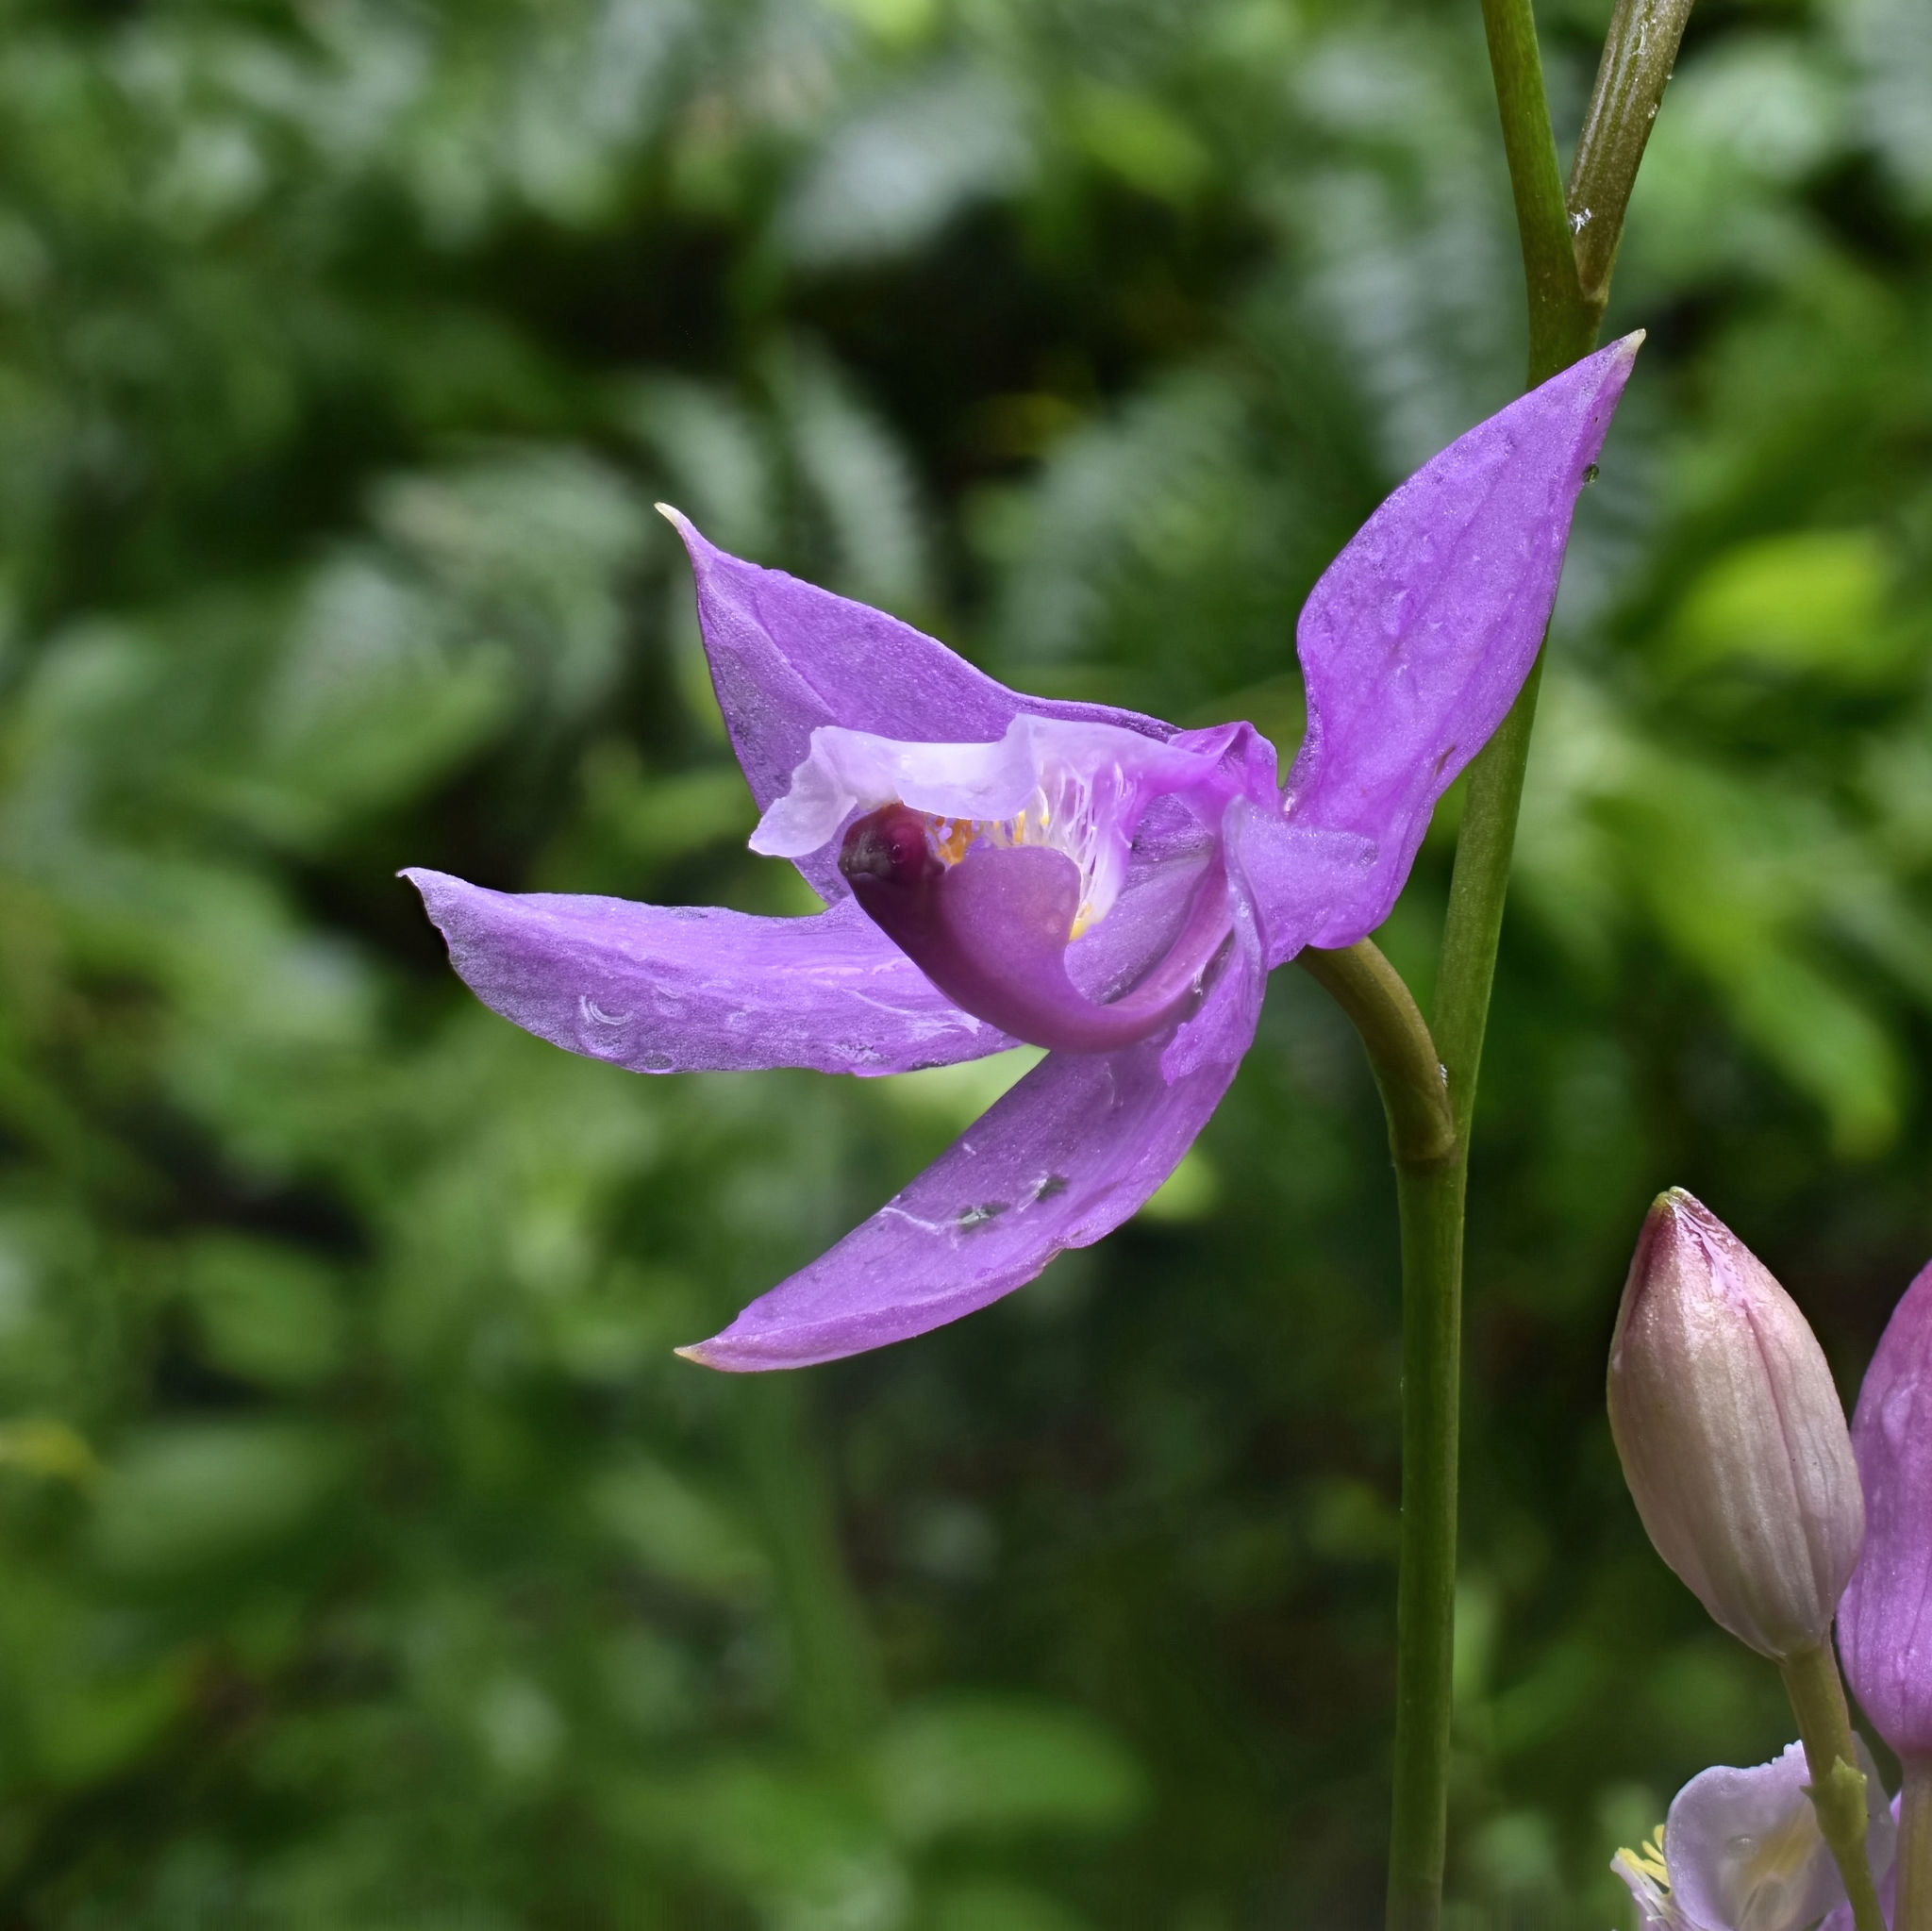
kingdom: Plantae
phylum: Tracheophyta
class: Liliopsida
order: Asparagales
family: Orchidaceae
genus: Calopogon
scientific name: Calopogon tuberosus
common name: Grass-pink
